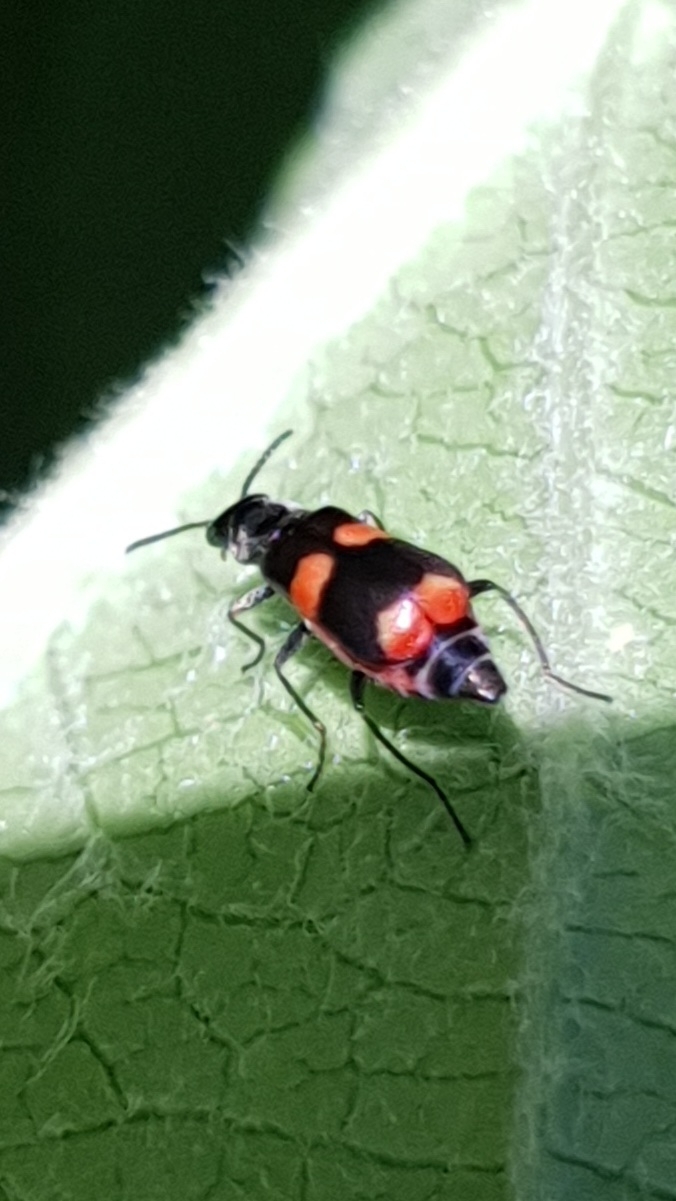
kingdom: Animalia
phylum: Arthropoda
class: Insecta
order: Coleoptera
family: Melyridae
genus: Anthocomus
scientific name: Anthocomus fasciatus
